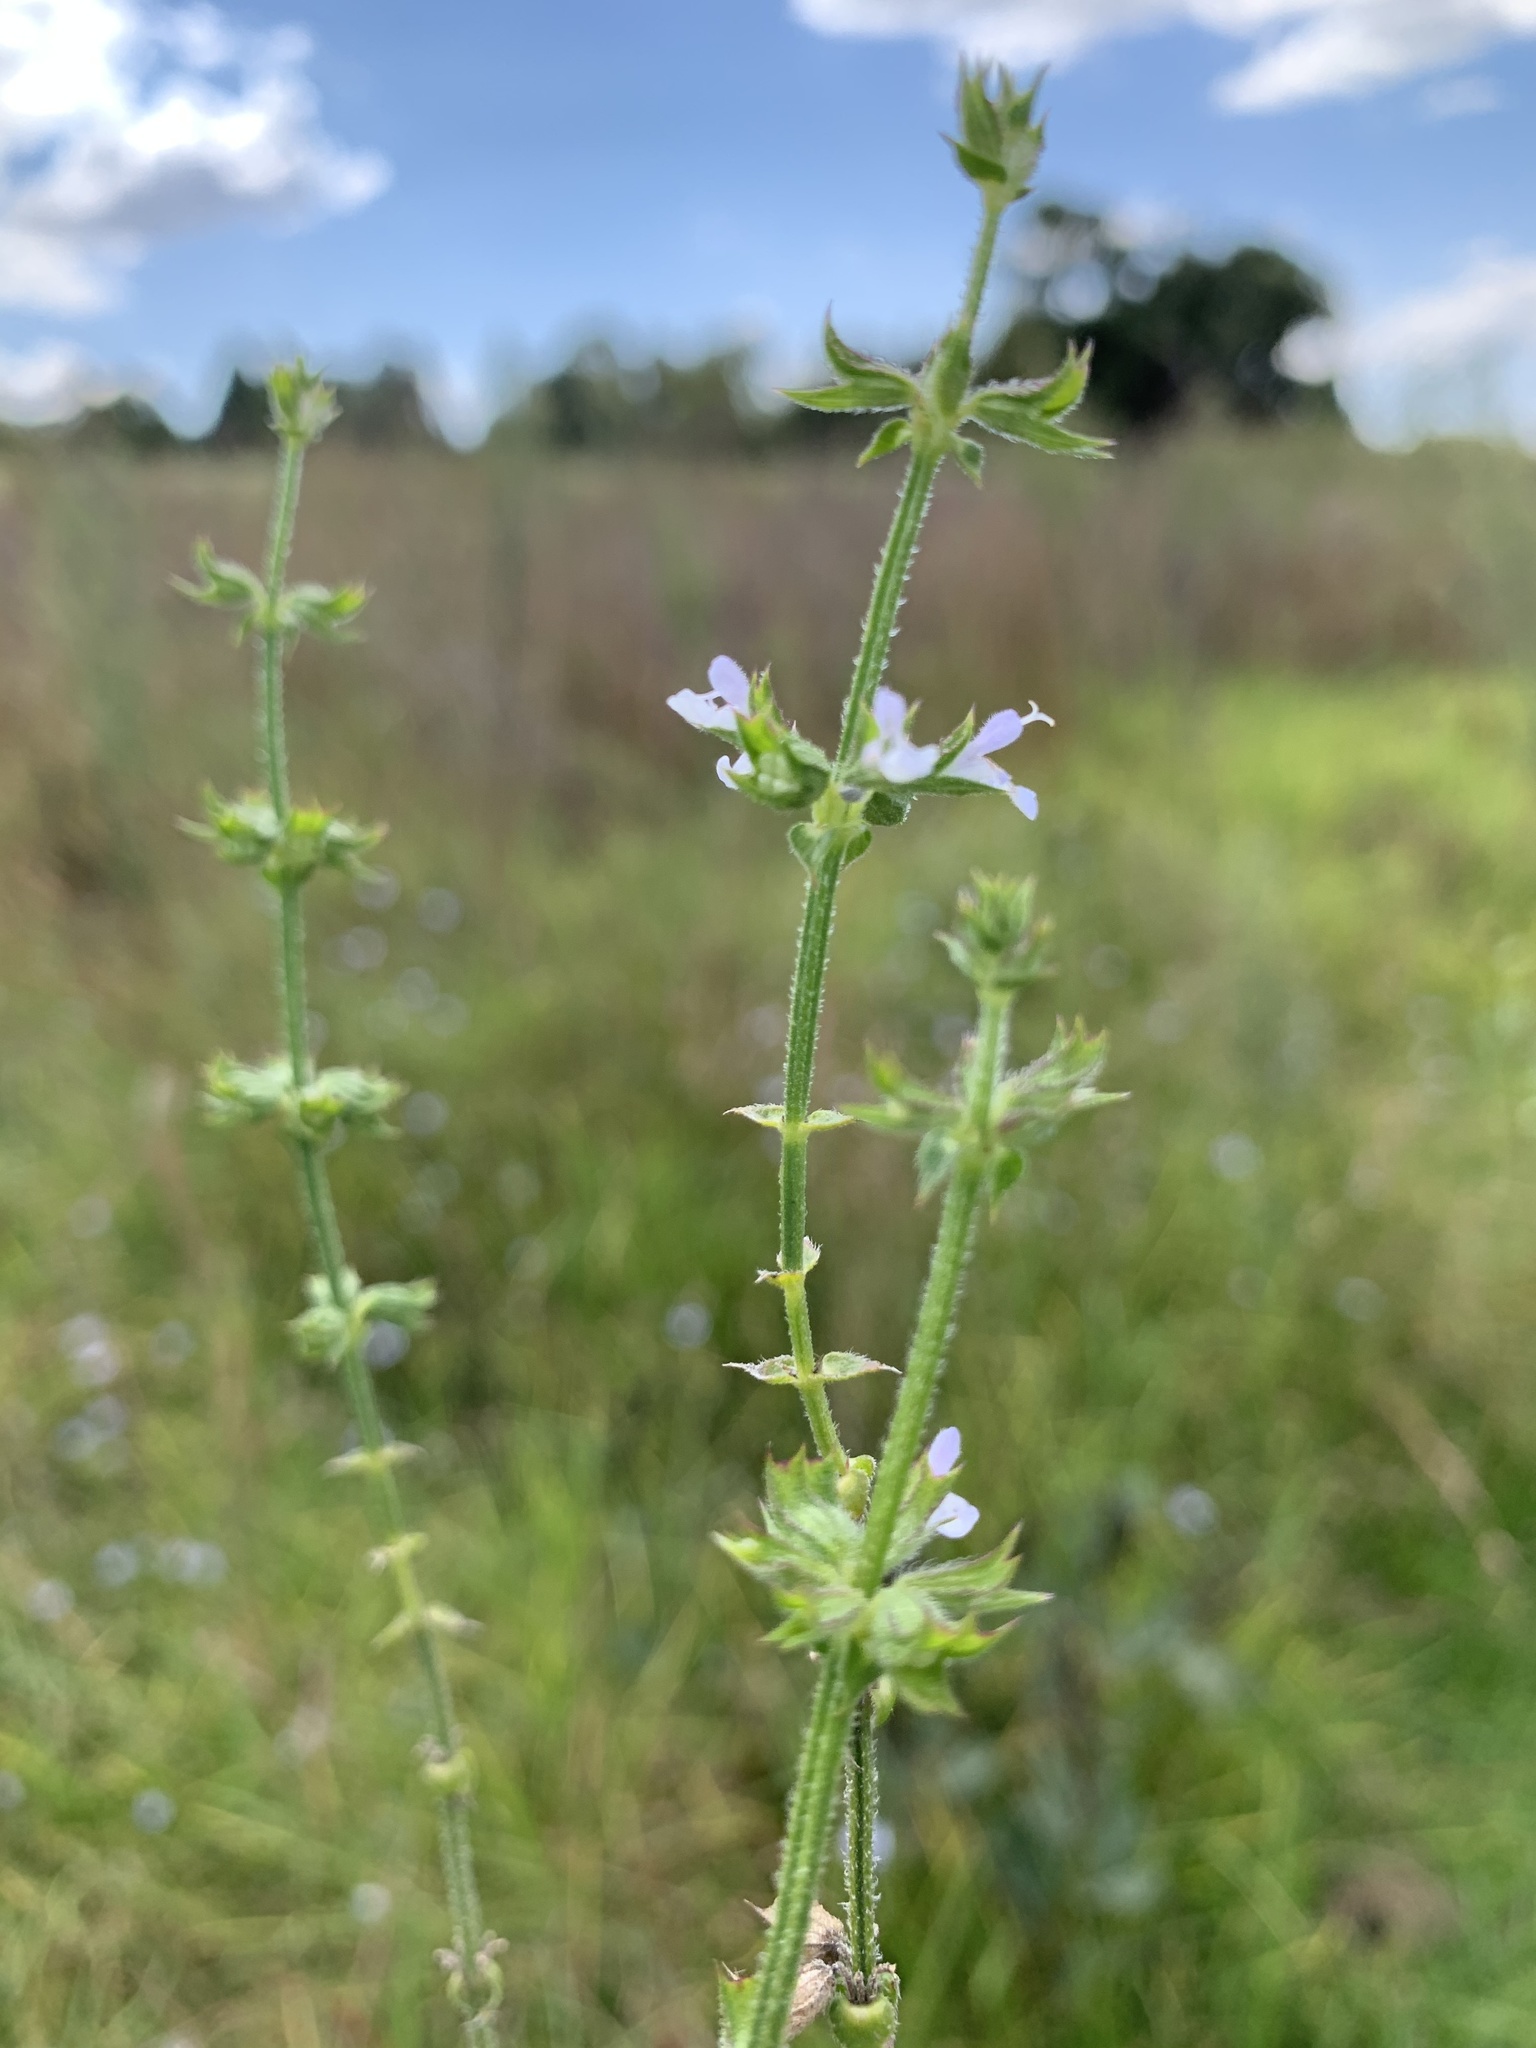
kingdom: Plantae
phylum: Tracheophyta
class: Magnoliopsida
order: Lamiales
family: Lamiaceae
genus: Salvia
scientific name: Salvia runcinata
